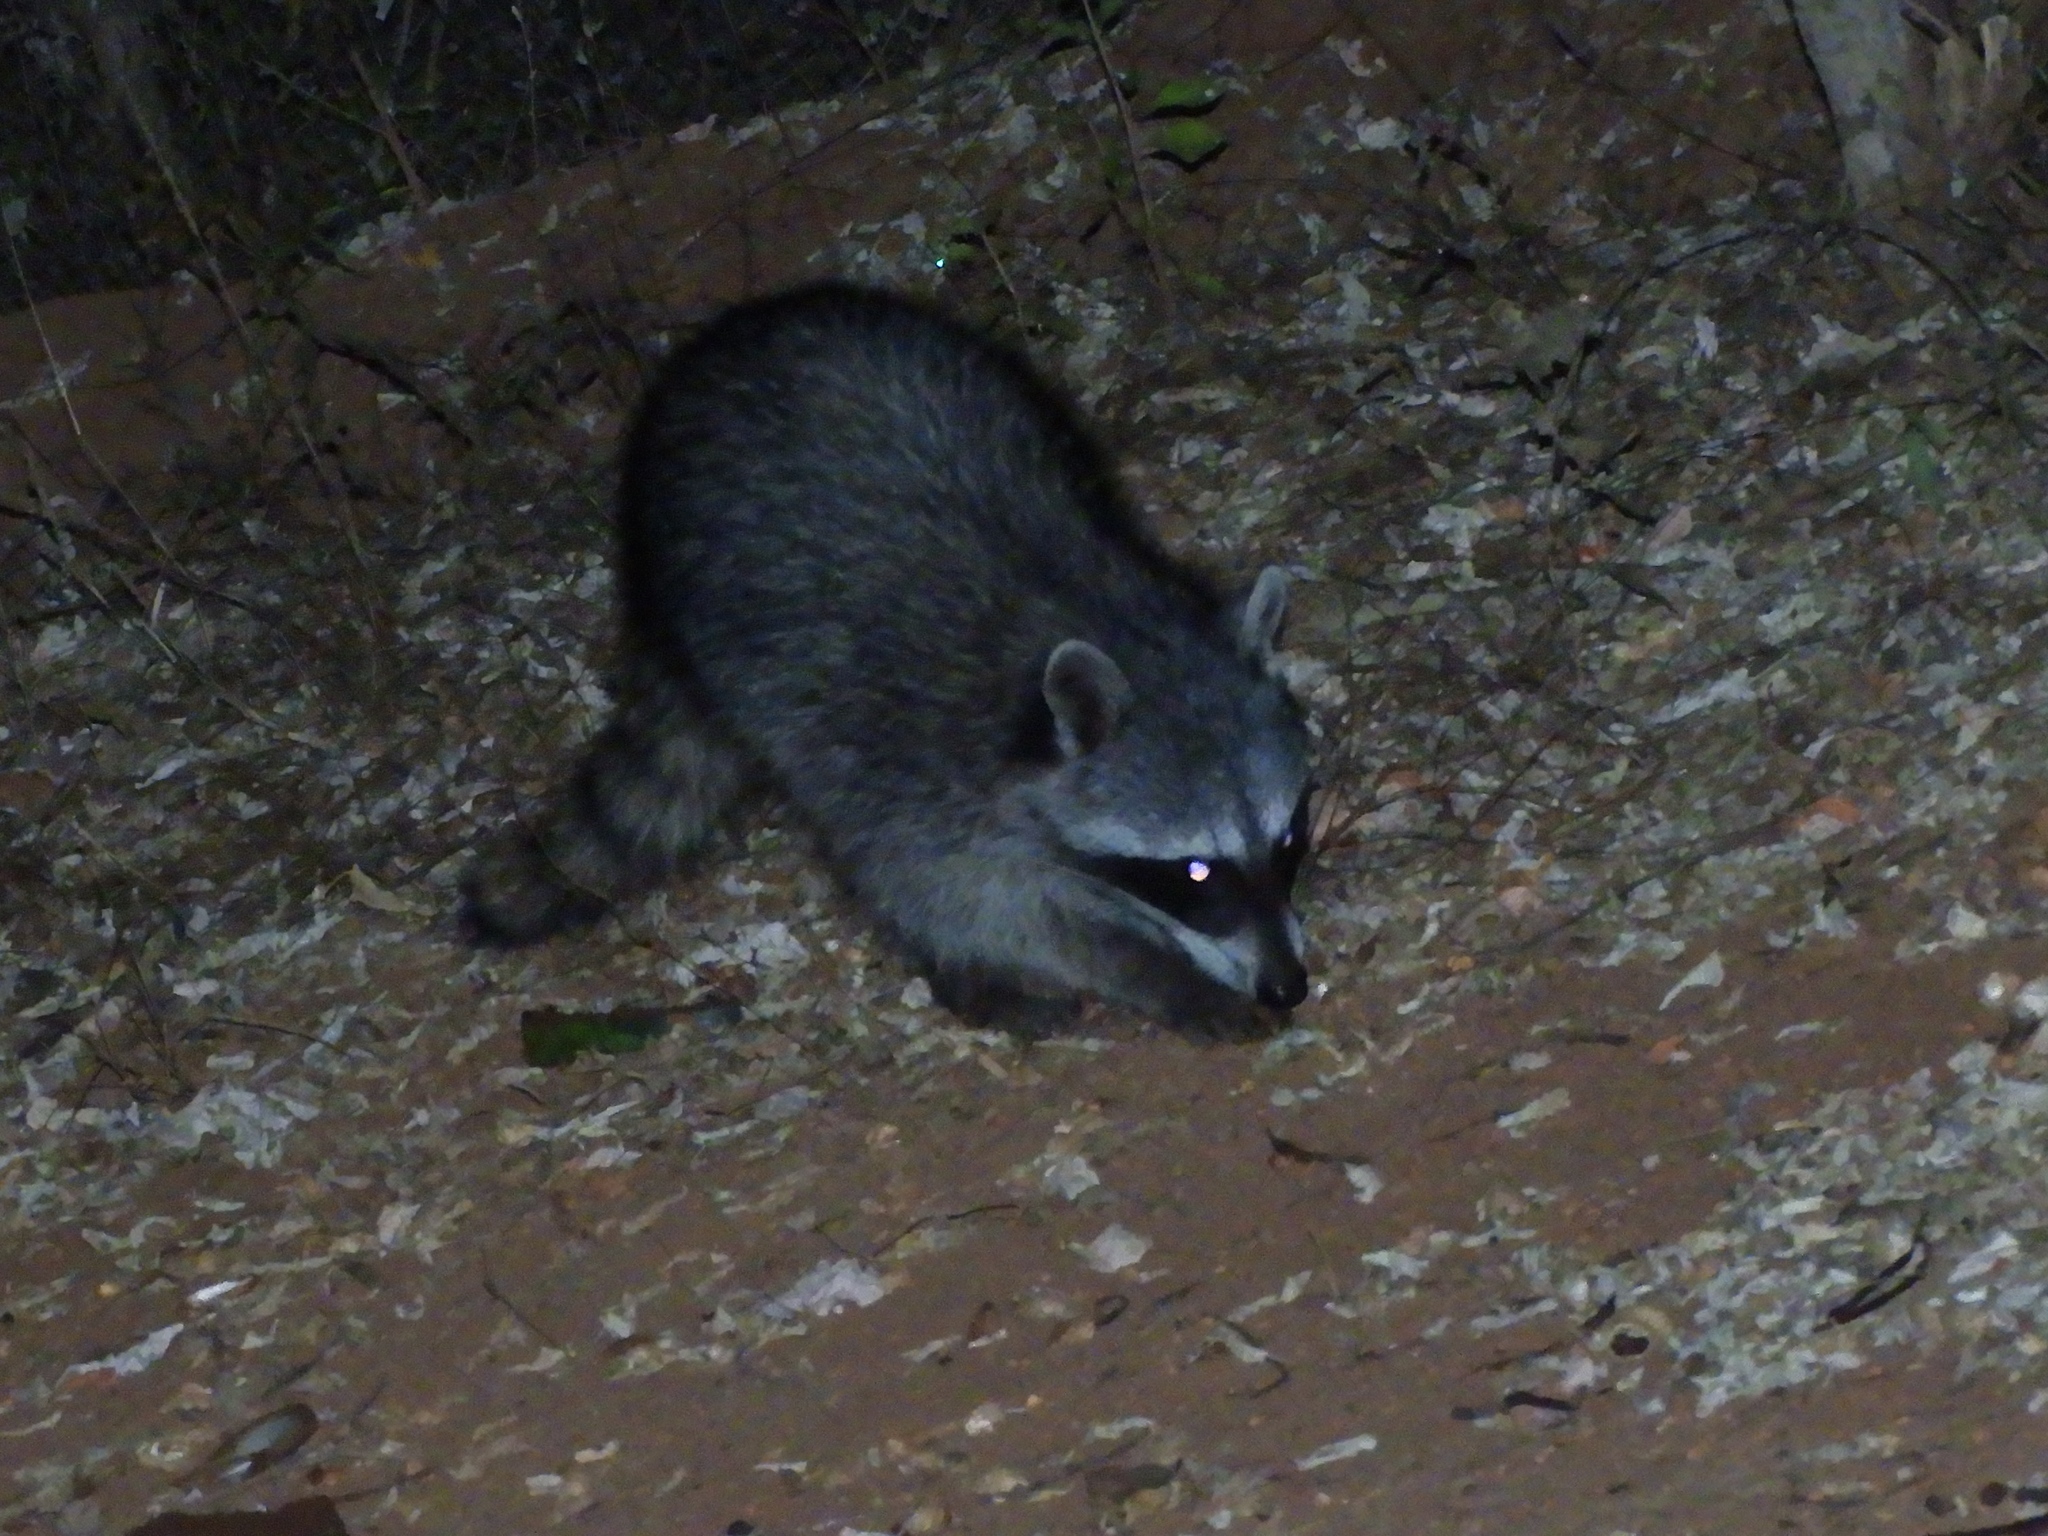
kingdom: Animalia
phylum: Chordata
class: Mammalia
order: Carnivora
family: Procyonidae
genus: Procyon
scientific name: Procyon lotor
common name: Raccoon
